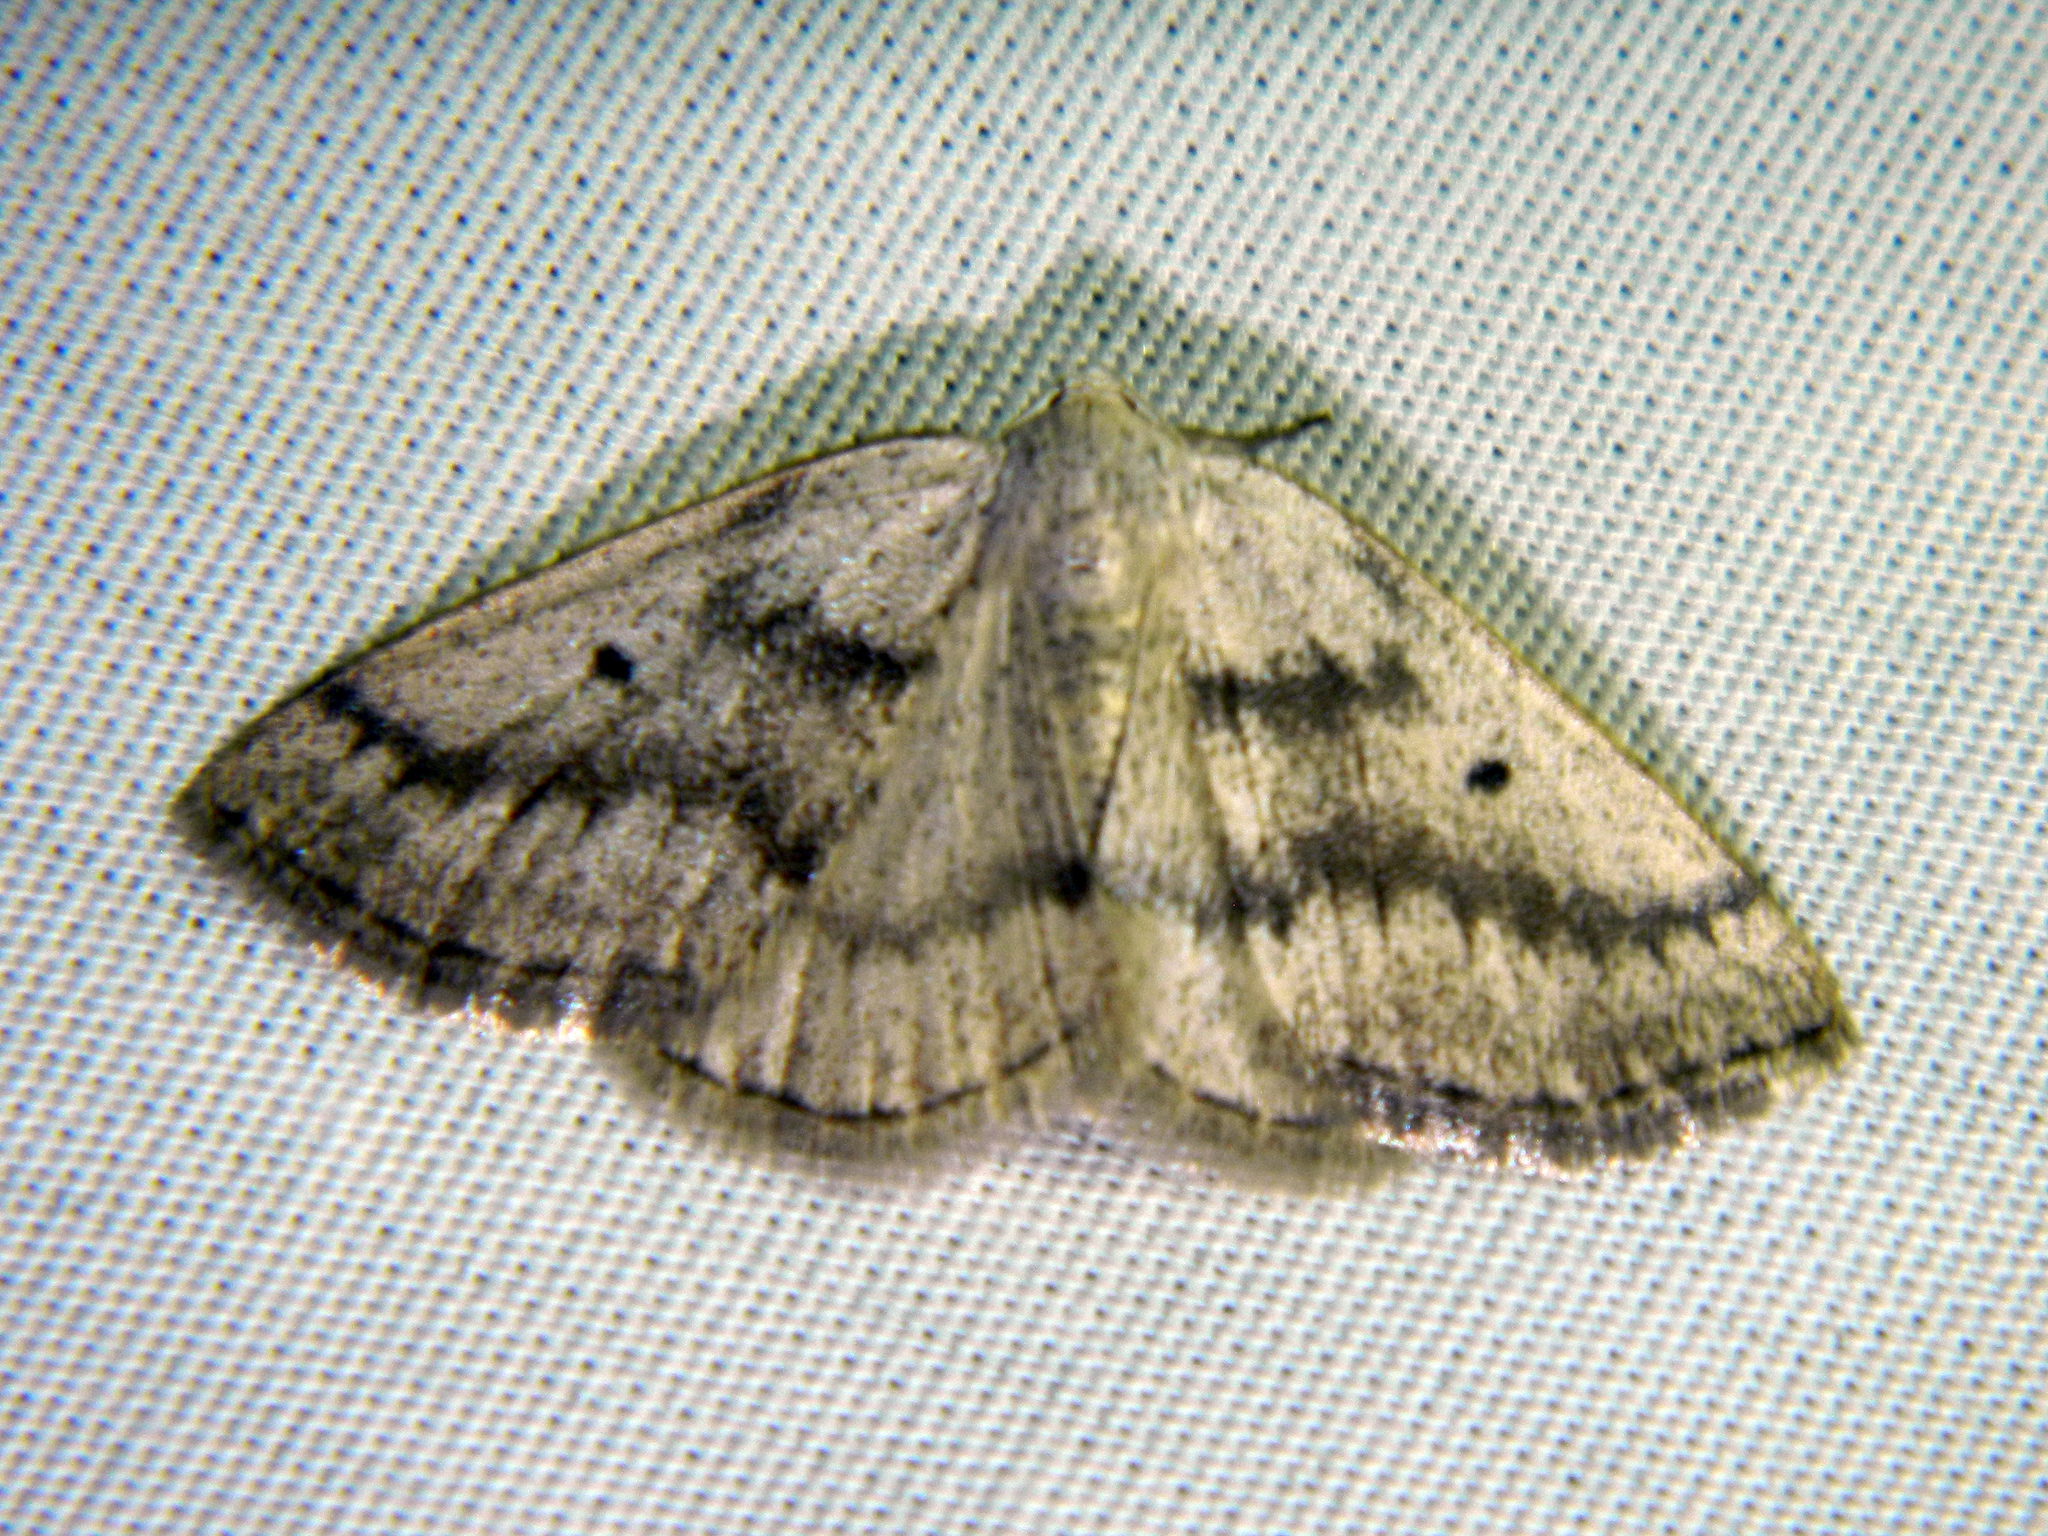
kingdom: Animalia
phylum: Arthropoda
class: Insecta
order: Lepidoptera
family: Geometridae
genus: Lomographa
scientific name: Lomographa glomeraria
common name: Gray spring moth
